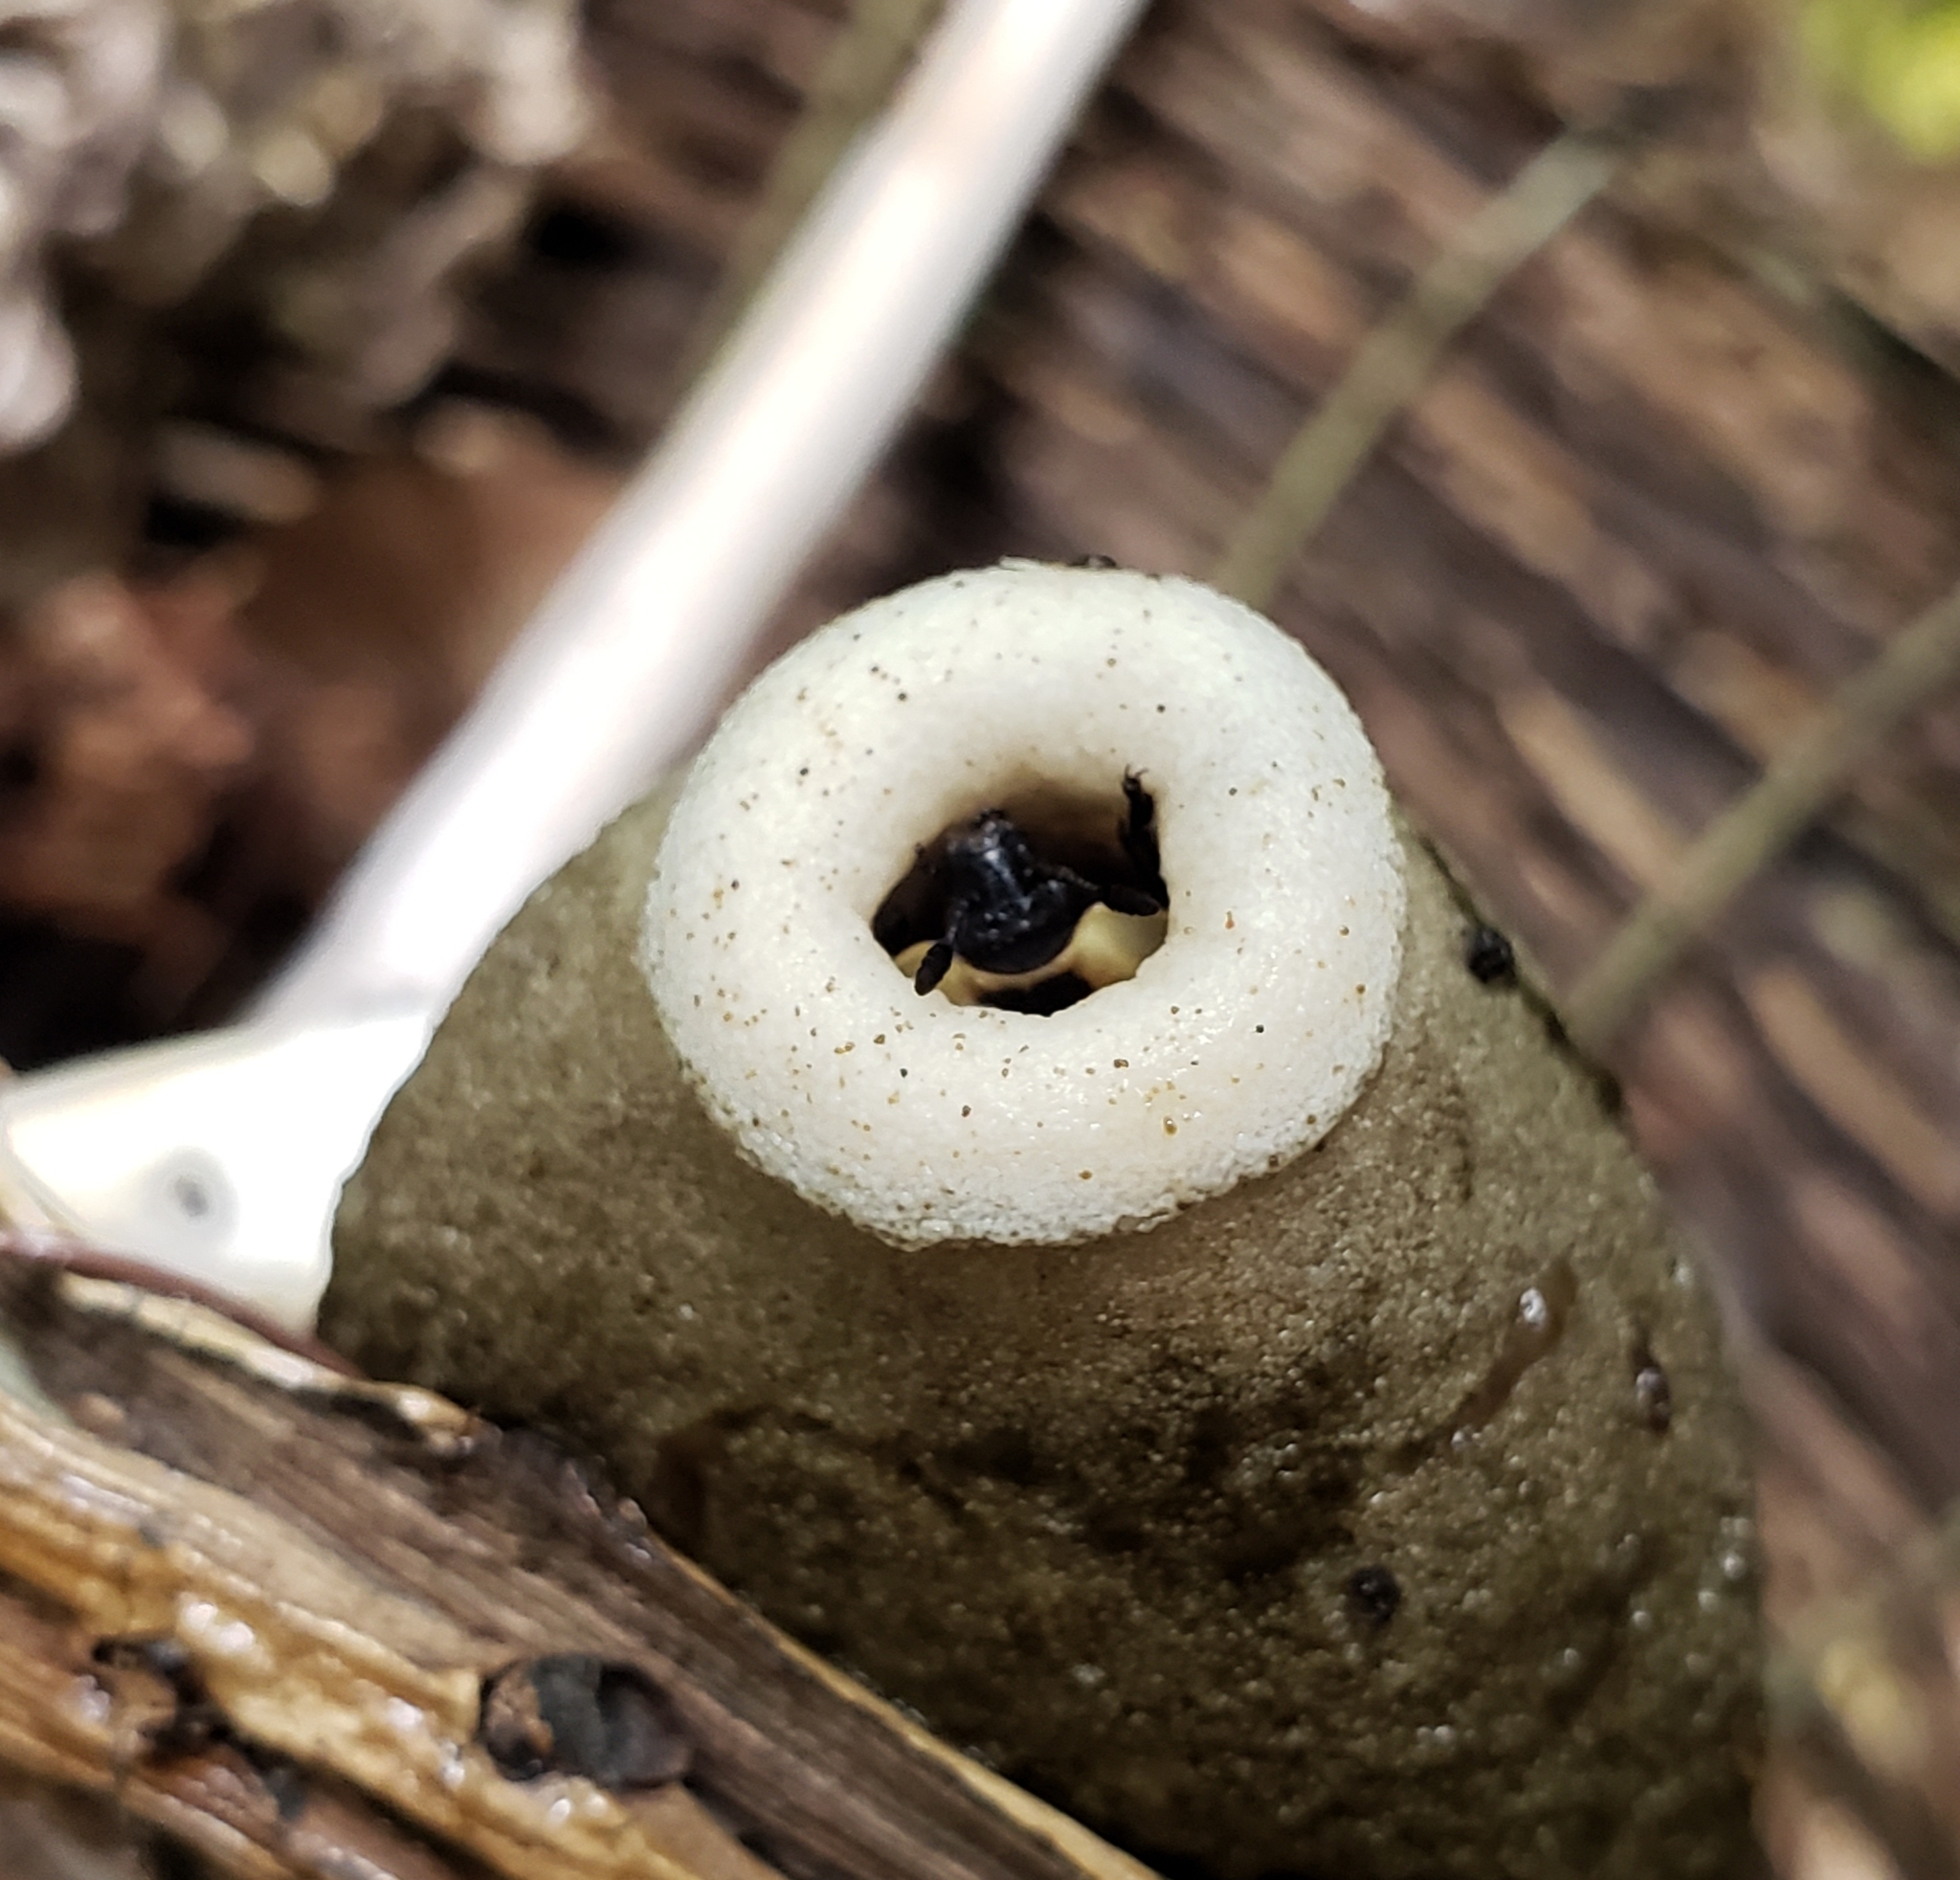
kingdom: Animalia
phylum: Arthropoda
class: Insecta
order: Coleoptera
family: Staphylinidae
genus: Necrophila
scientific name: Necrophila americana
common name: American carrion beetle
